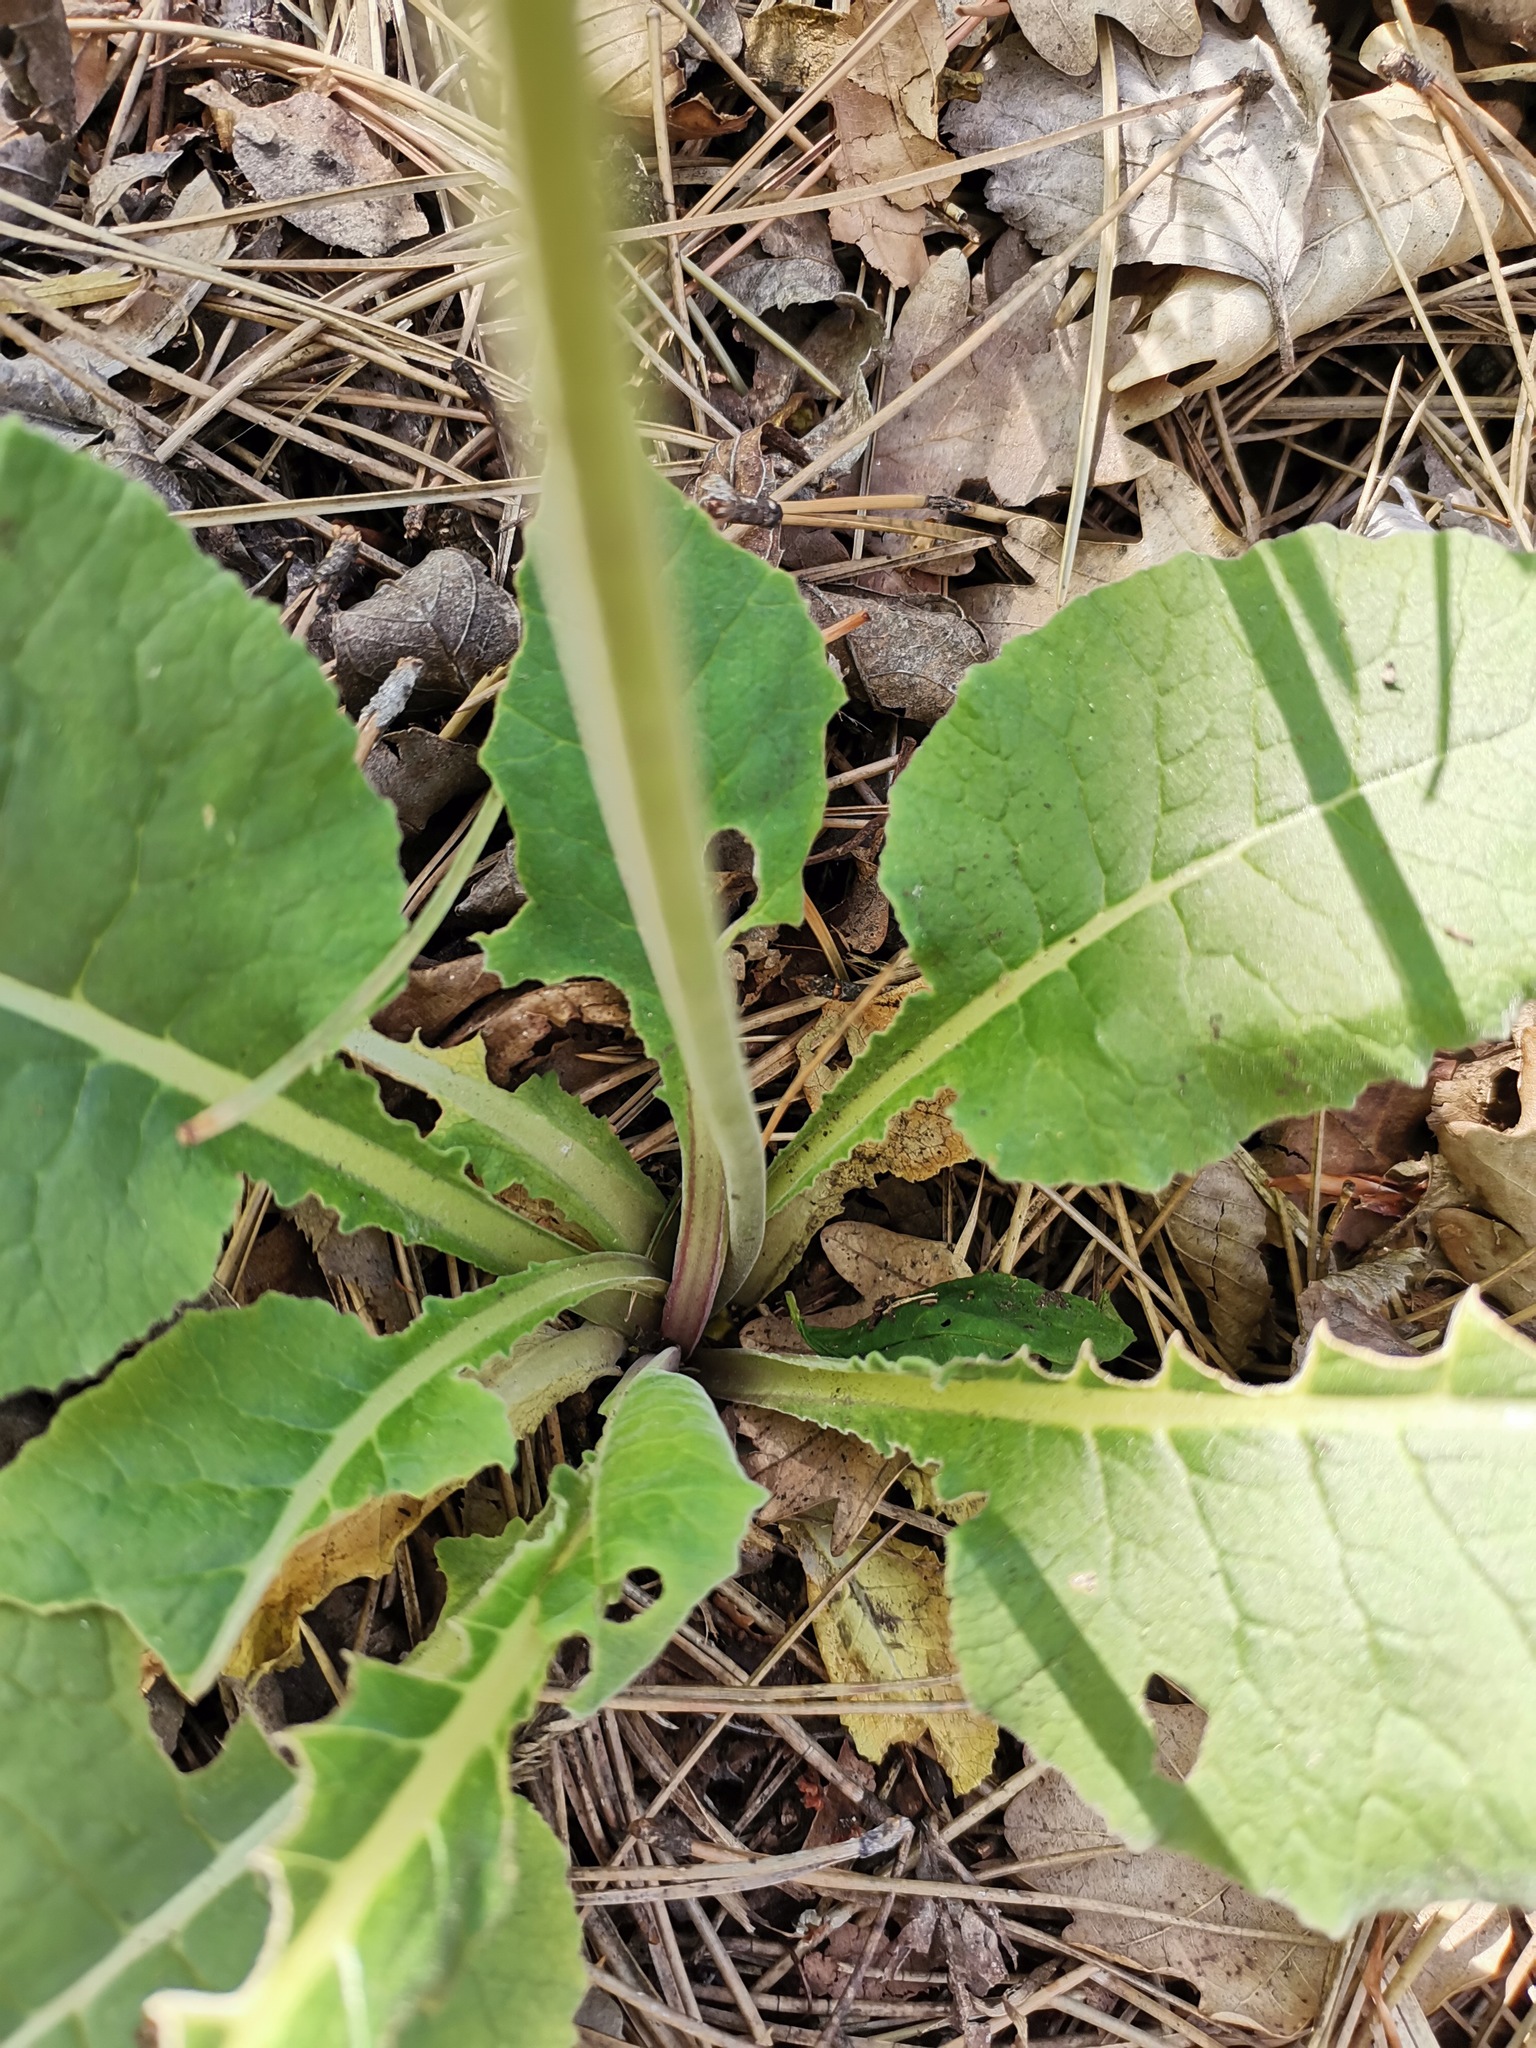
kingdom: Plantae
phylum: Tracheophyta
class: Magnoliopsida
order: Ericales
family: Primulaceae
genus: Primula
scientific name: Primula veris
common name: Cowslip
